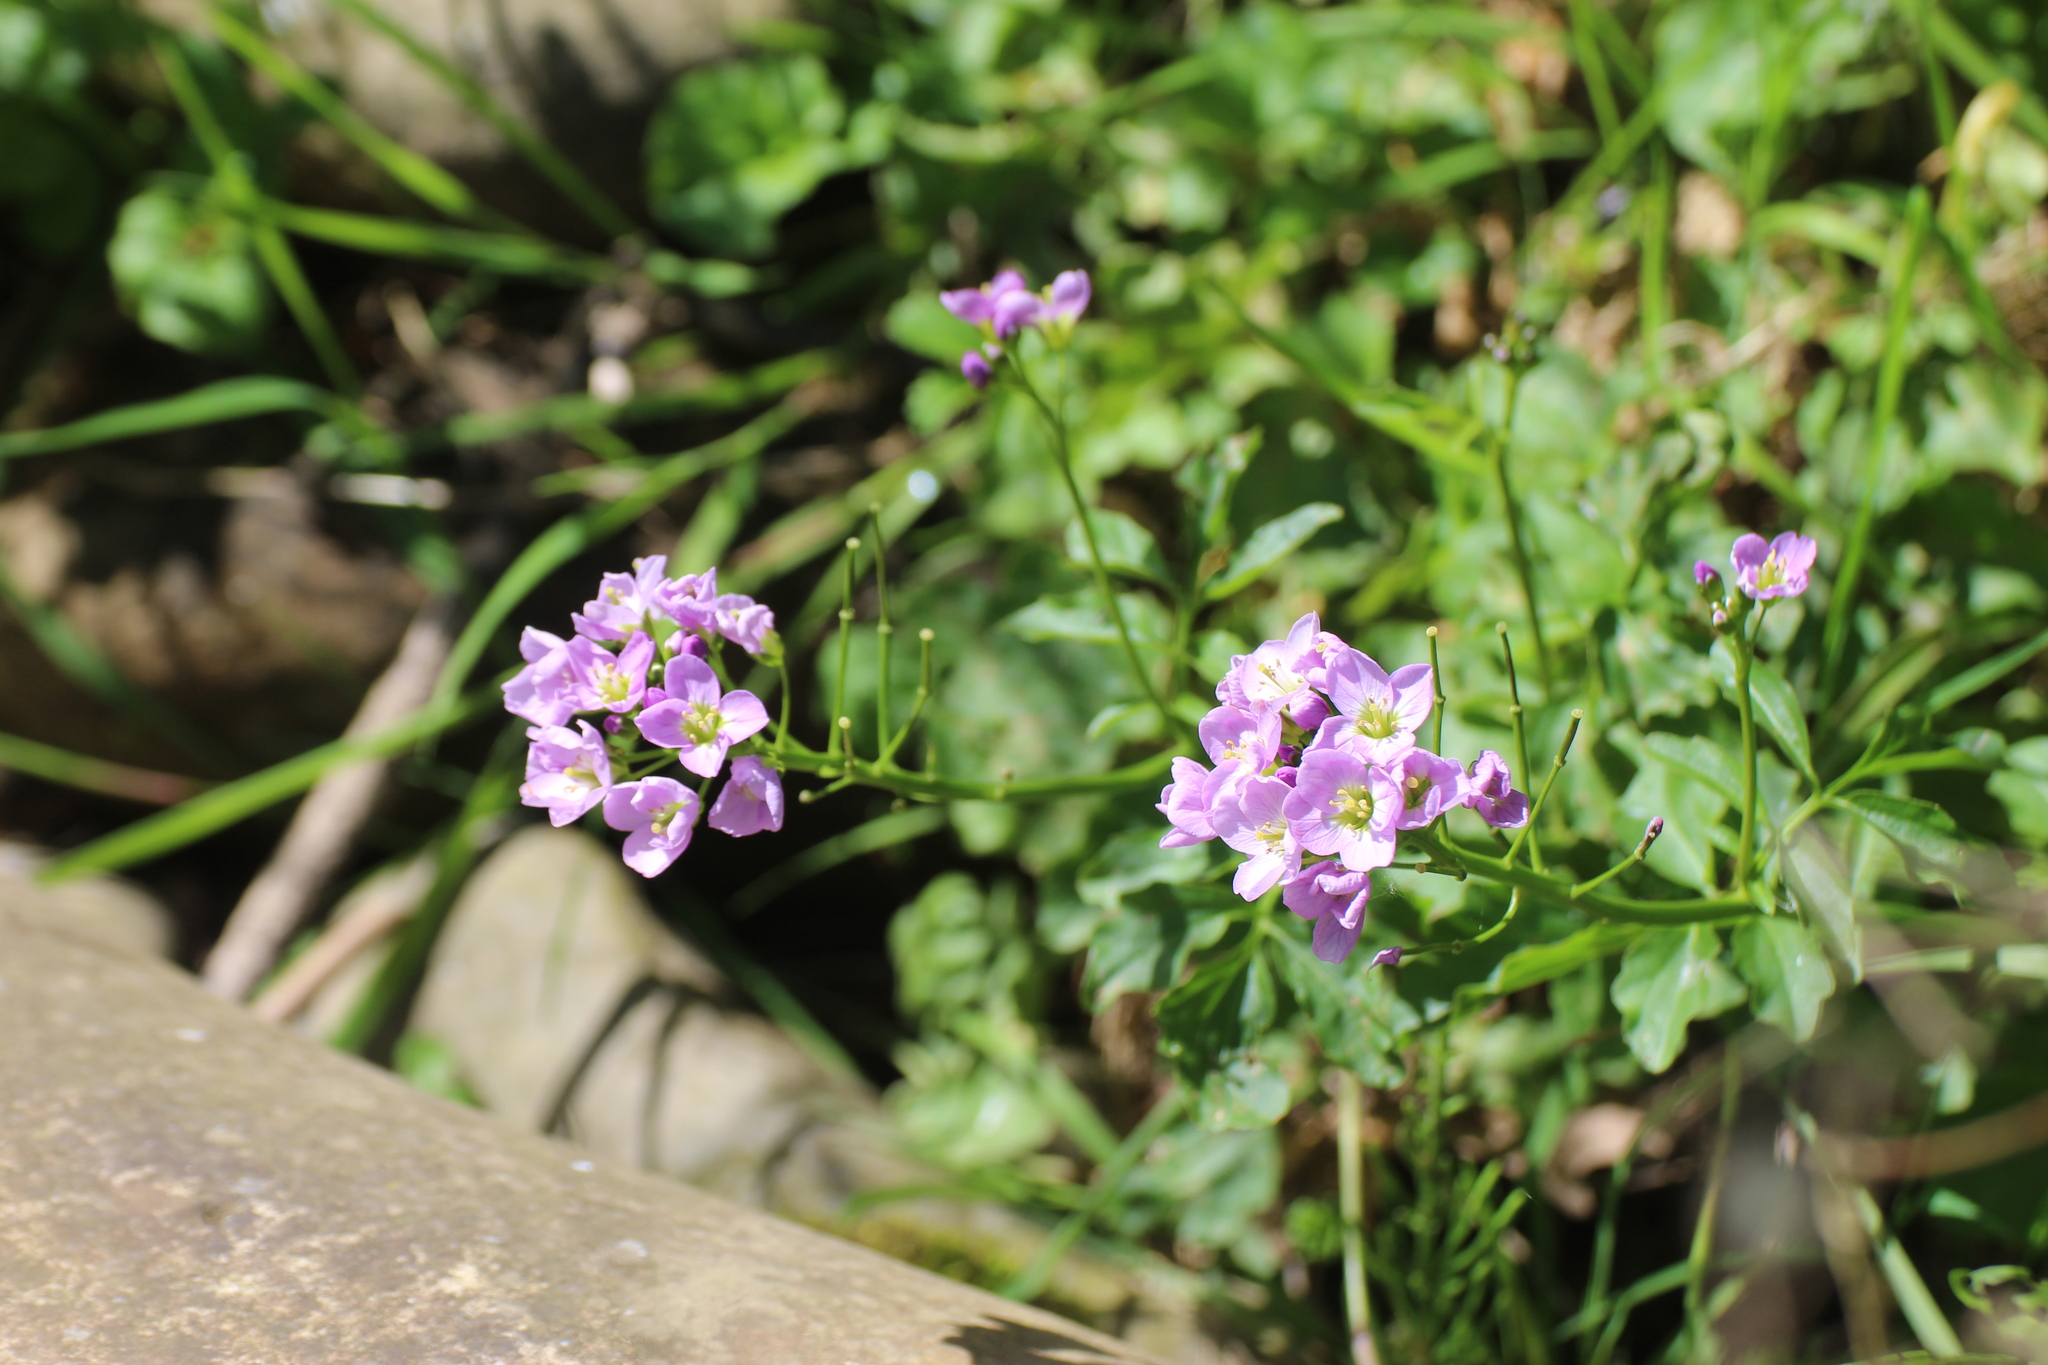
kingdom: Plantae
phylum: Tracheophyta
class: Magnoliopsida
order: Brassicales
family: Brassicaceae
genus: Cardamine
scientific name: Cardamine pratensis
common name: Cuckoo flower
